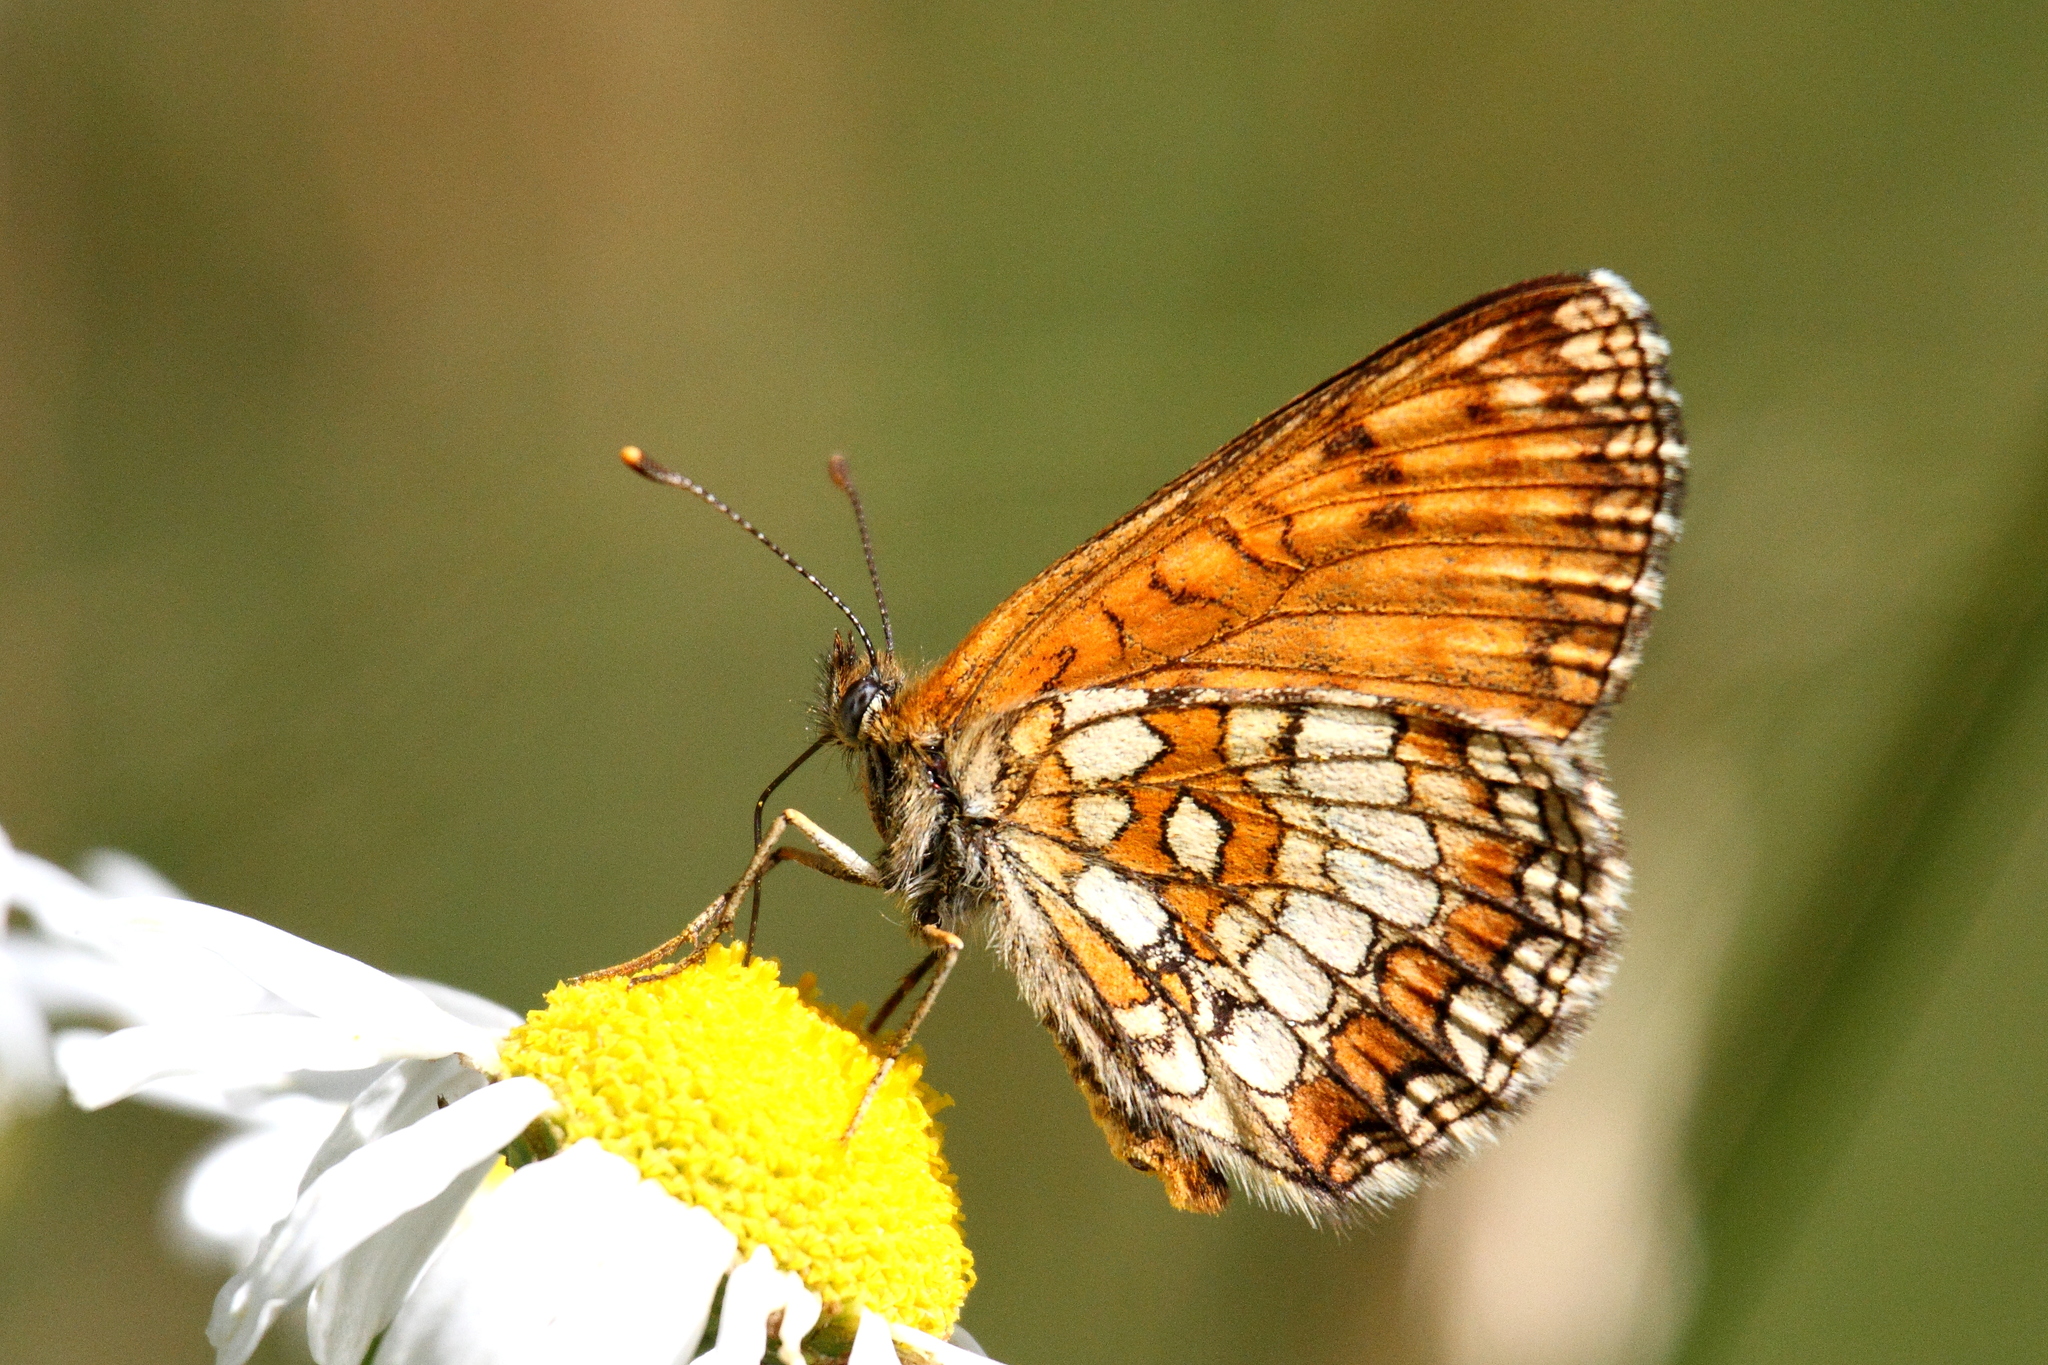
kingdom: Animalia
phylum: Arthropoda
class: Insecta
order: Lepidoptera
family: Nymphalidae
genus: Melitaea
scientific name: Melitaea athalia
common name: Heath fritillary
